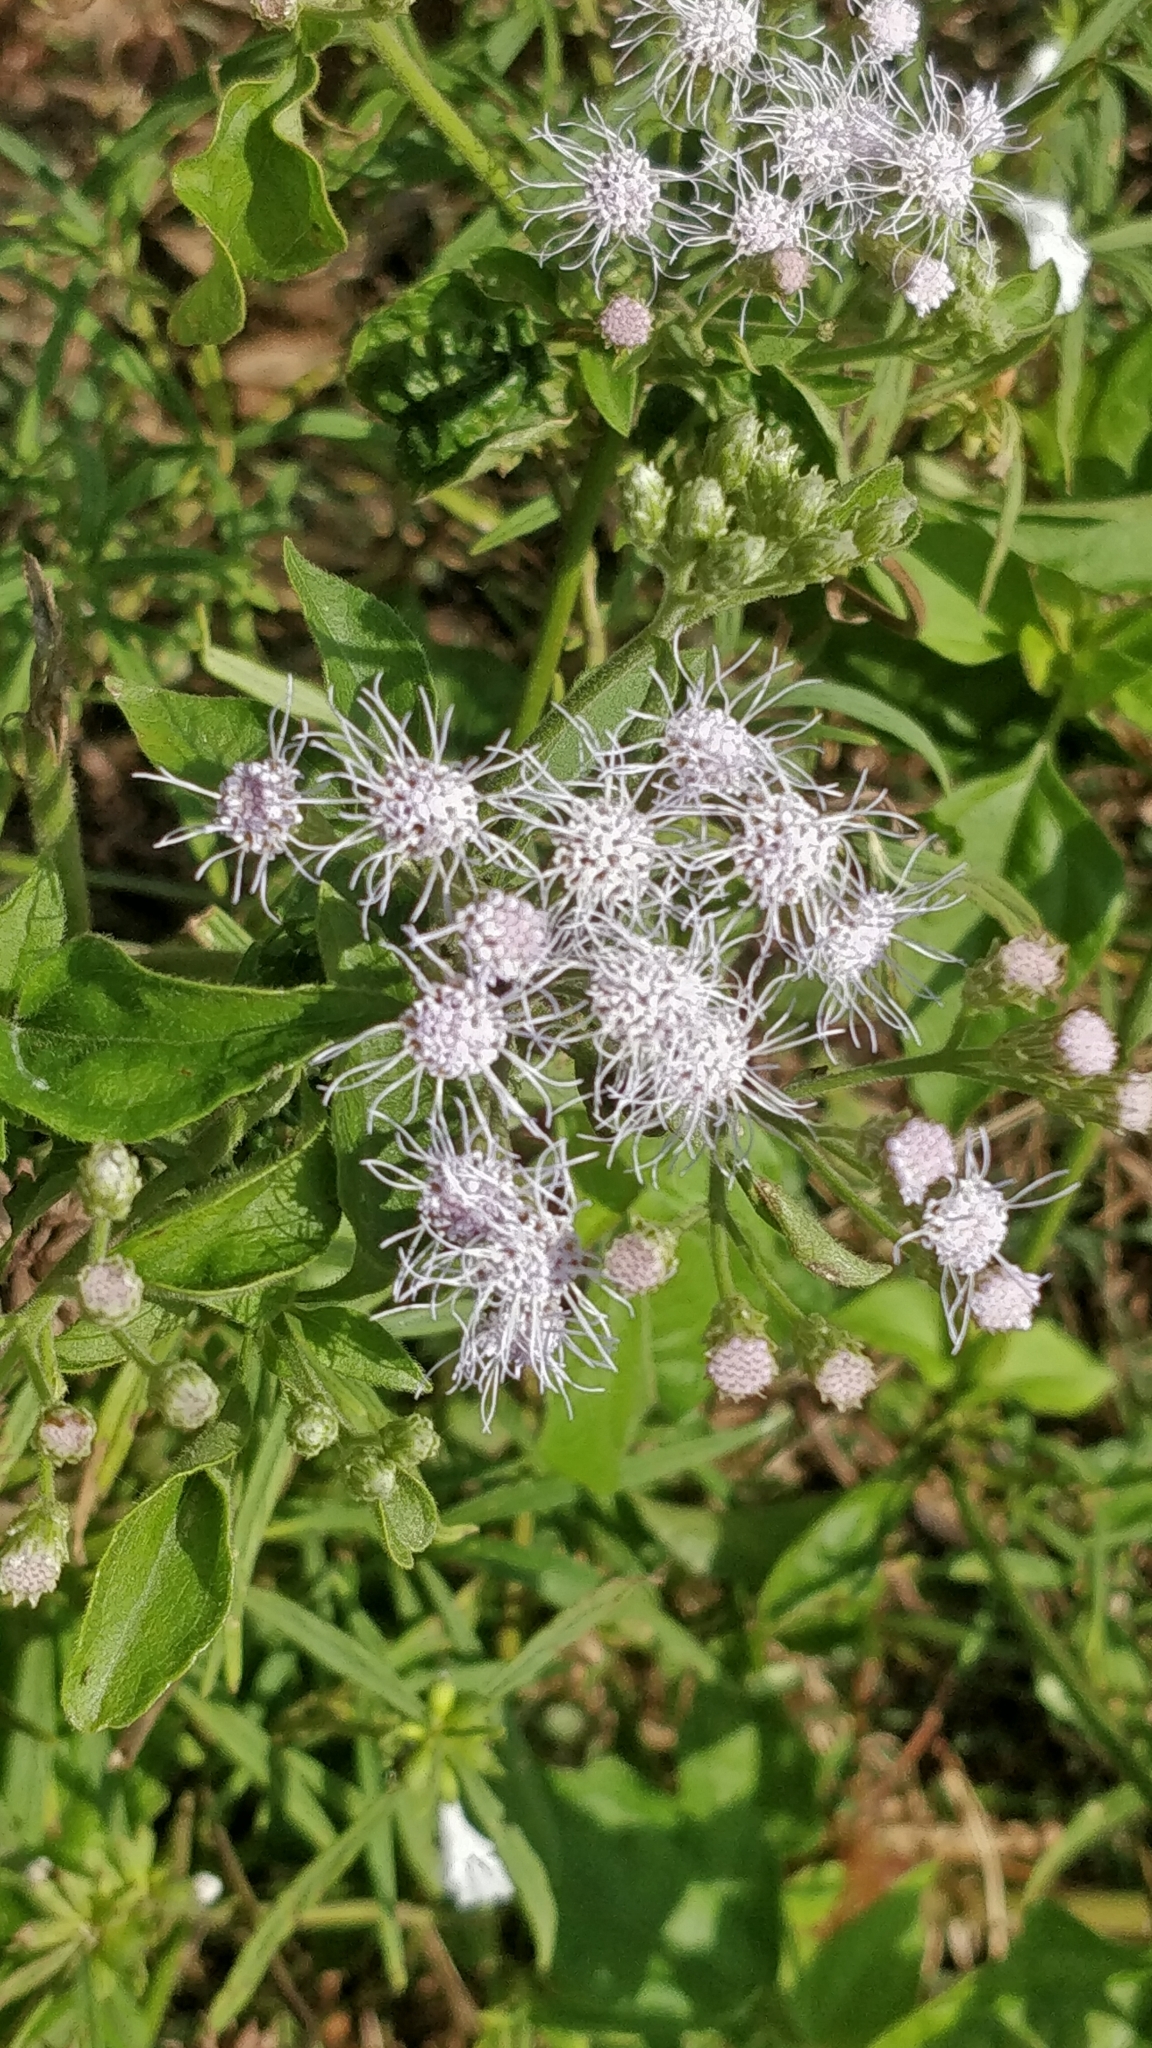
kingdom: Plantae
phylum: Tracheophyta
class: Magnoliopsida
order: Asterales
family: Asteraceae
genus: Chromolaena
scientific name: Chromolaena odorata
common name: Siamweed
